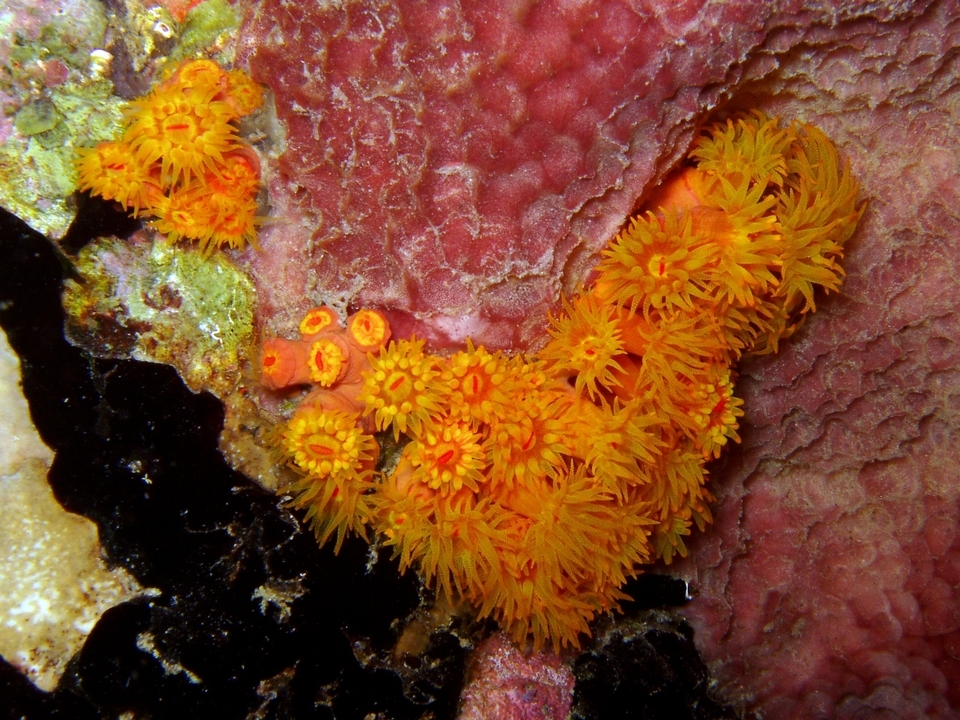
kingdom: Animalia
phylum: Cnidaria
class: Anthozoa
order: Scleractinia
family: Dendrophylliidae
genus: Tubastraea
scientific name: Tubastraea coccinea
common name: Orange cup coral
